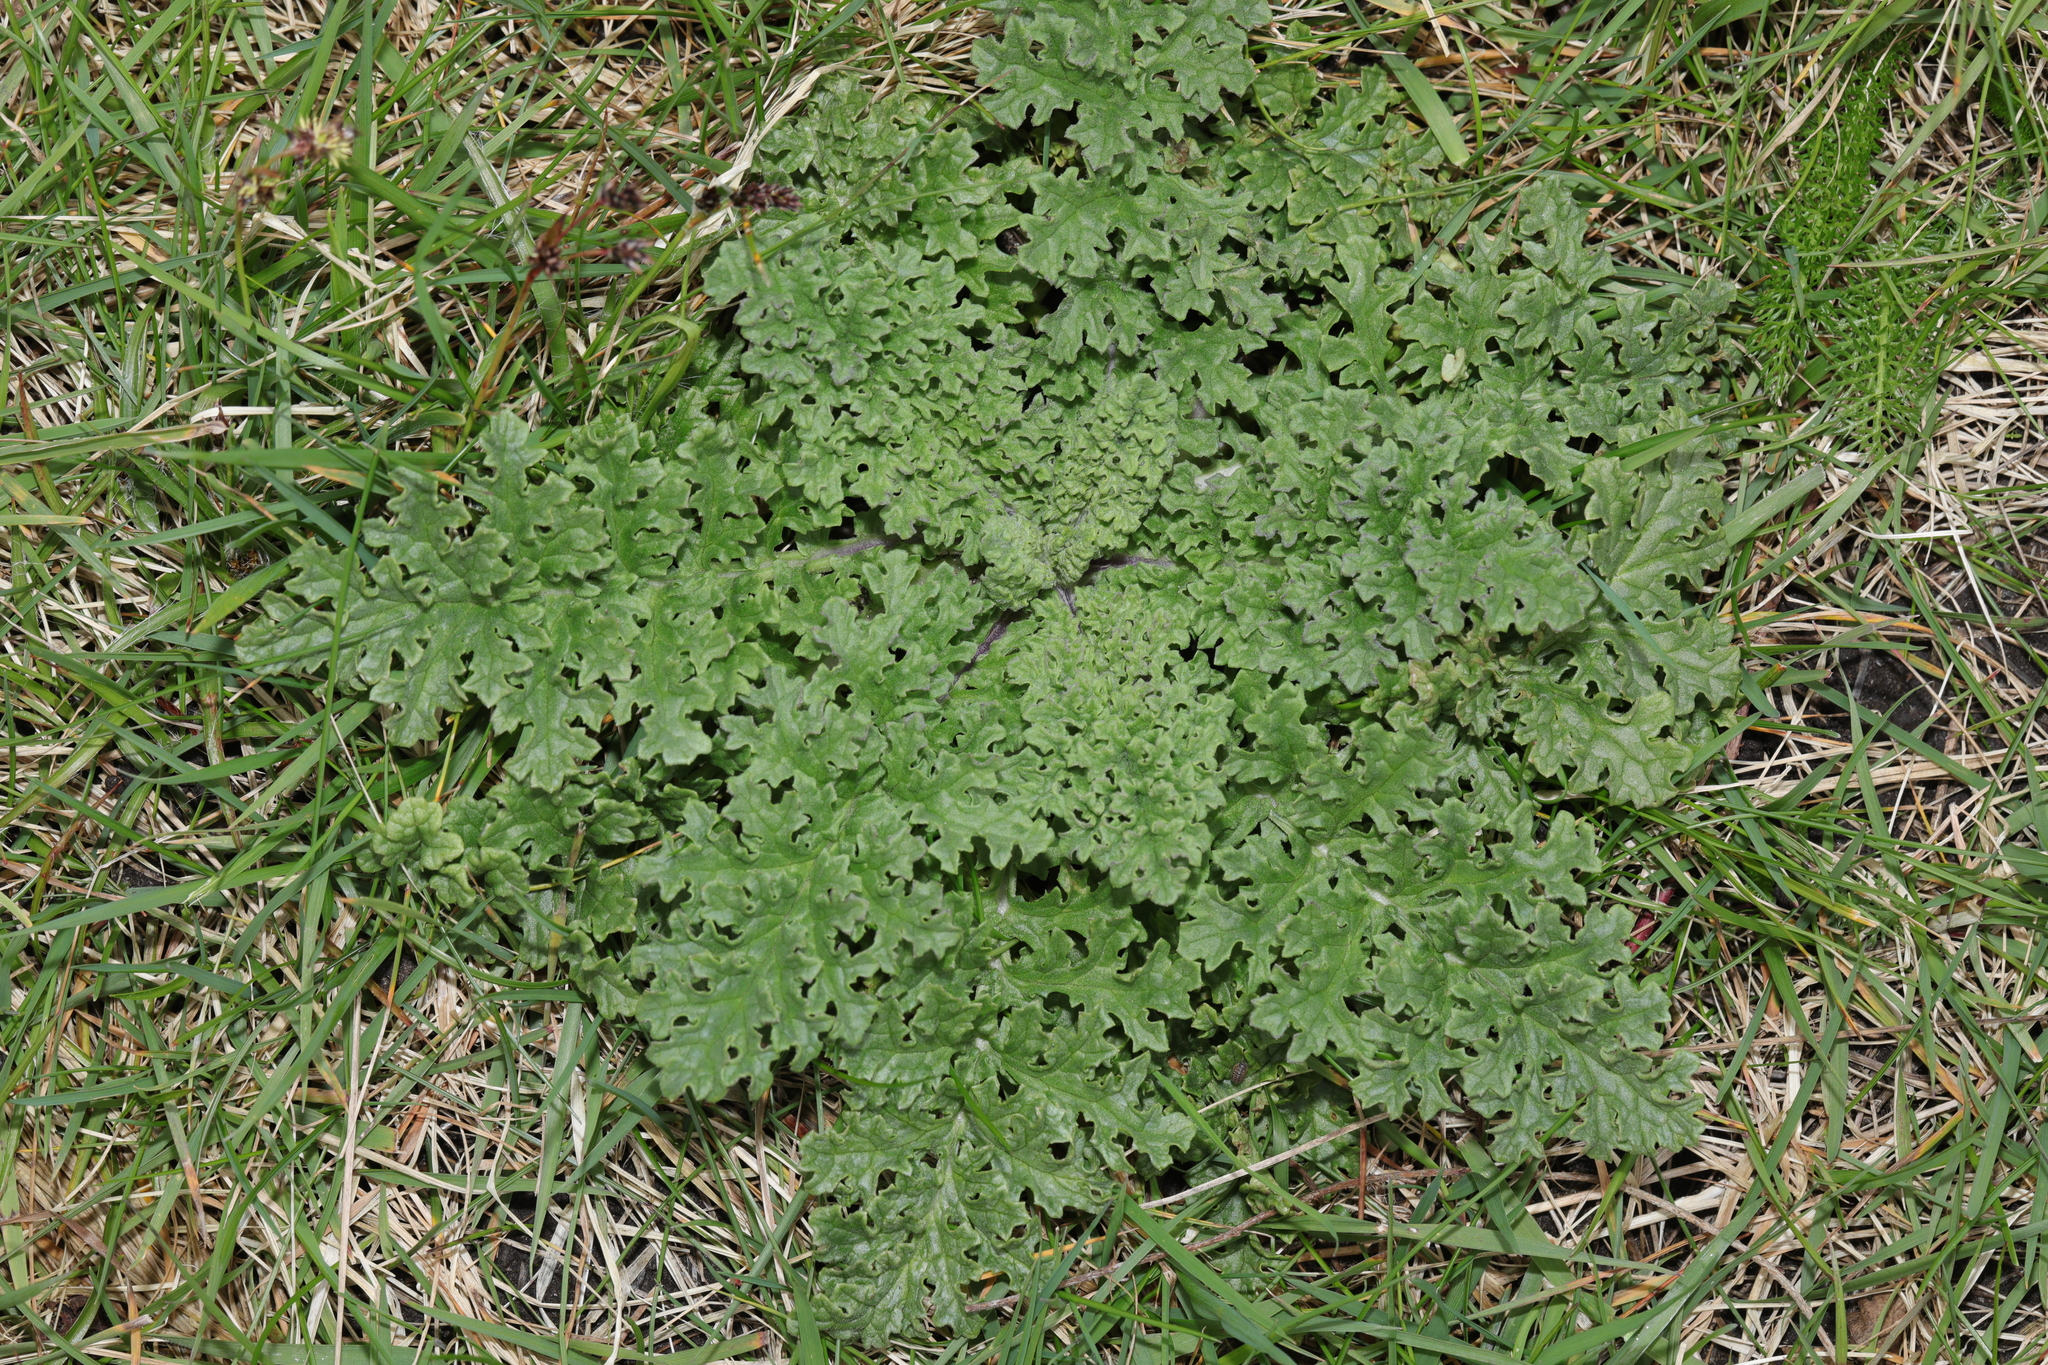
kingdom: Plantae
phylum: Tracheophyta
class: Magnoliopsida
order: Asterales
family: Asteraceae
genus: Jacobaea
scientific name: Jacobaea vulgaris
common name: Stinking willie
